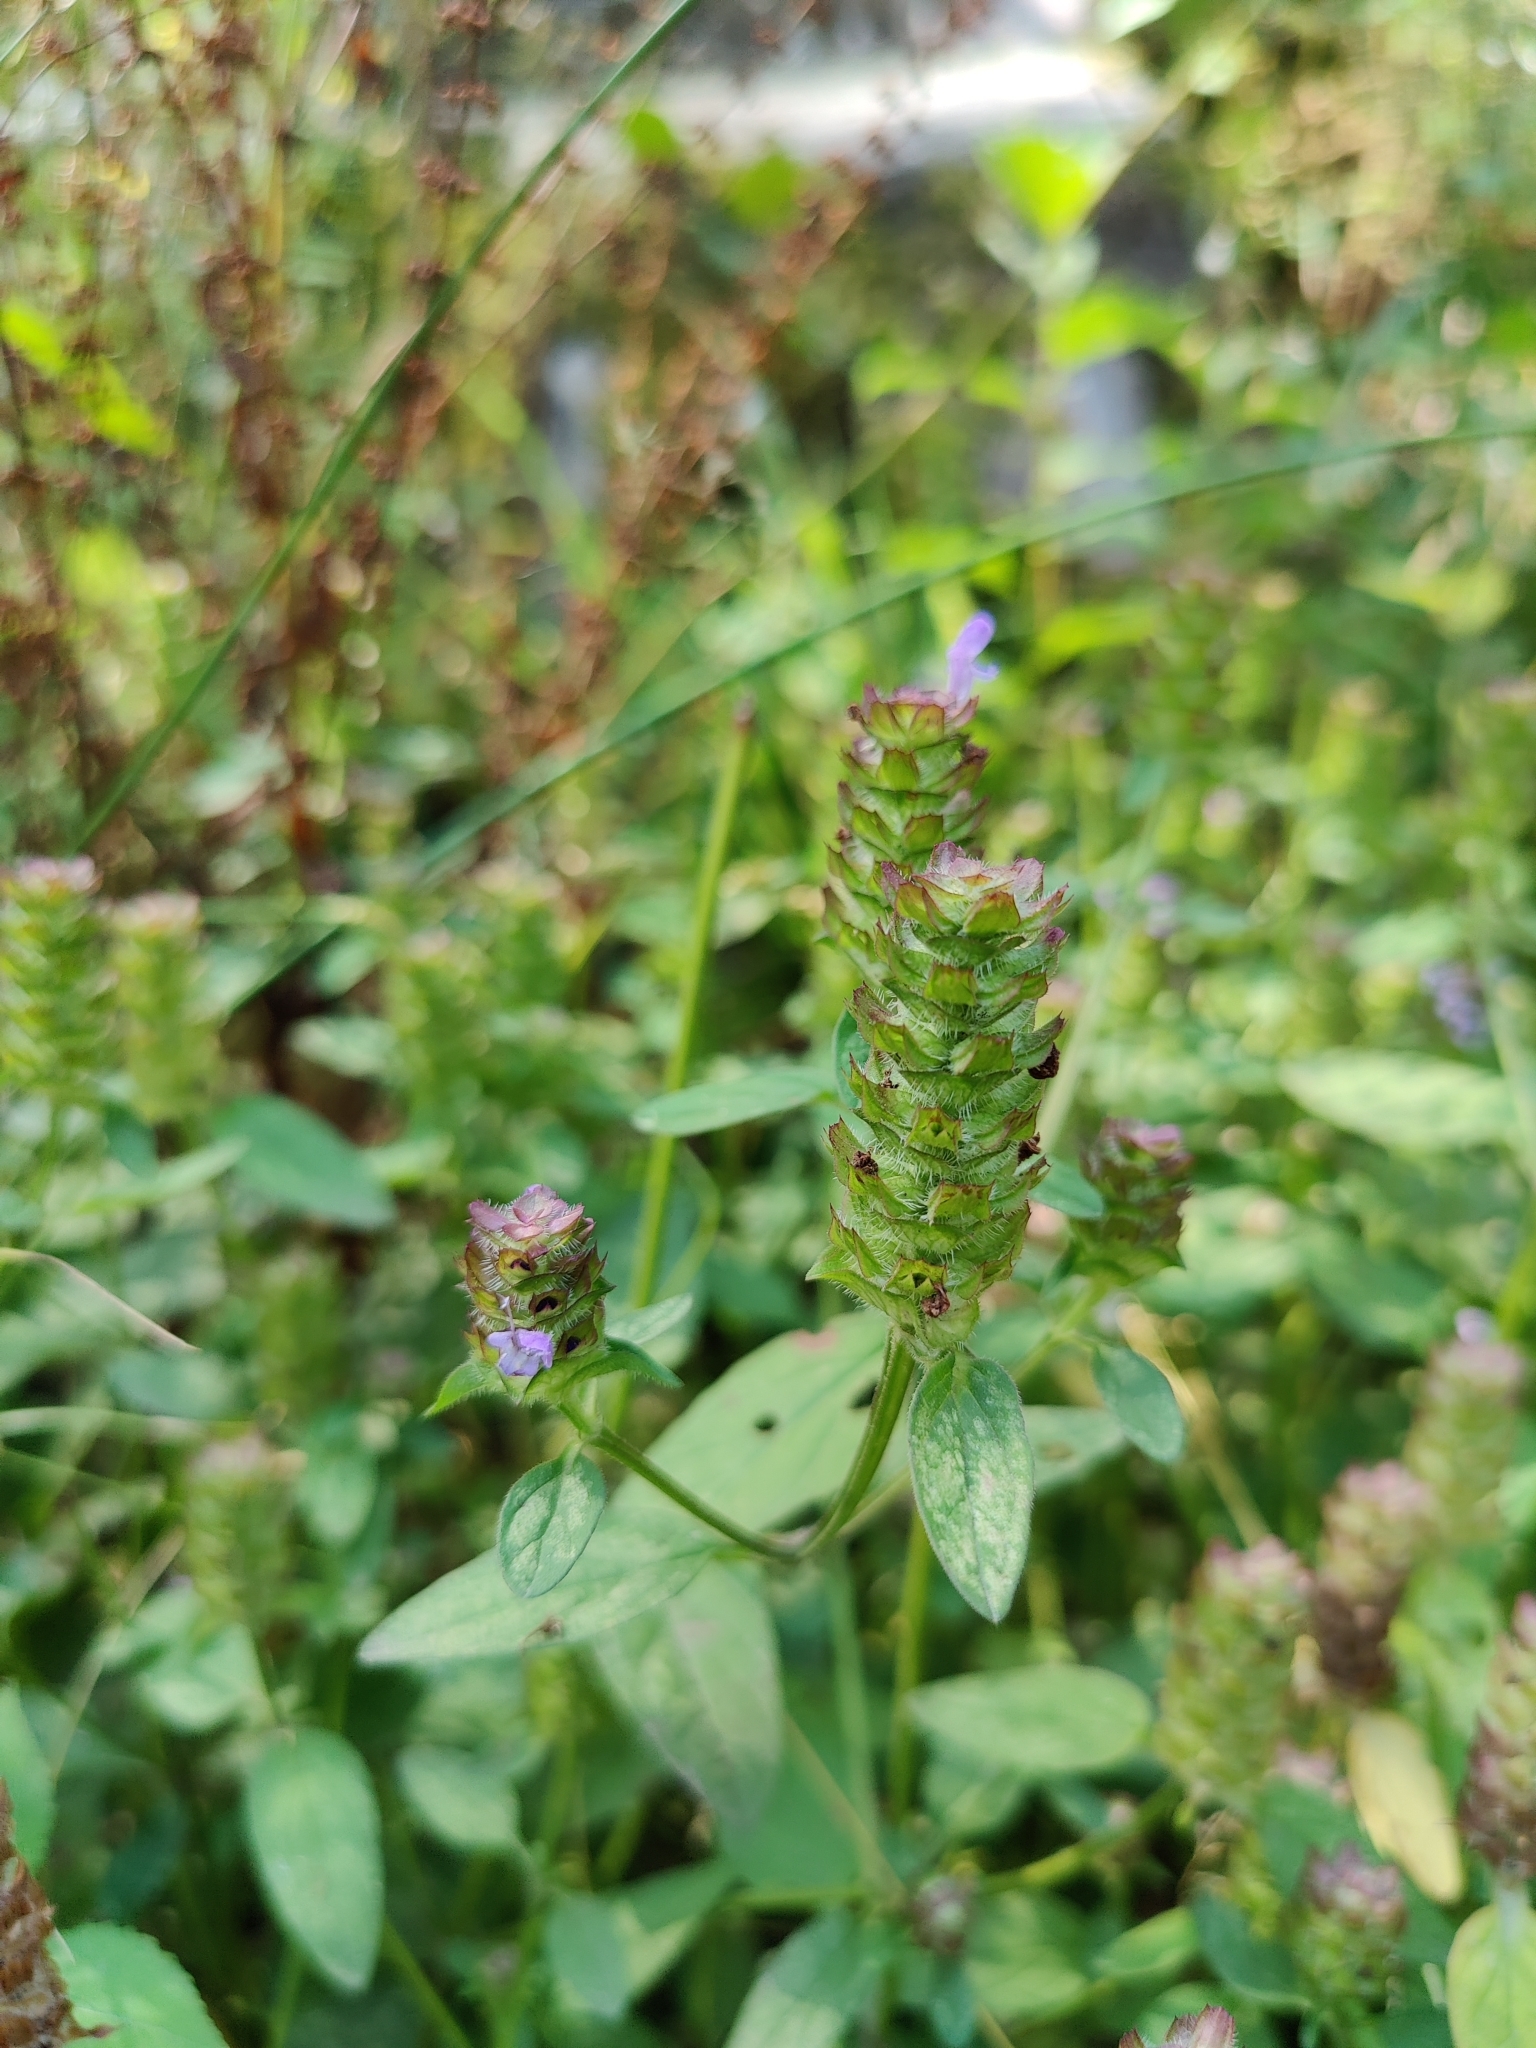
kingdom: Plantae
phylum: Tracheophyta
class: Magnoliopsida
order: Lamiales
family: Lamiaceae
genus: Prunella
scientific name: Prunella vulgaris
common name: Heal-all
